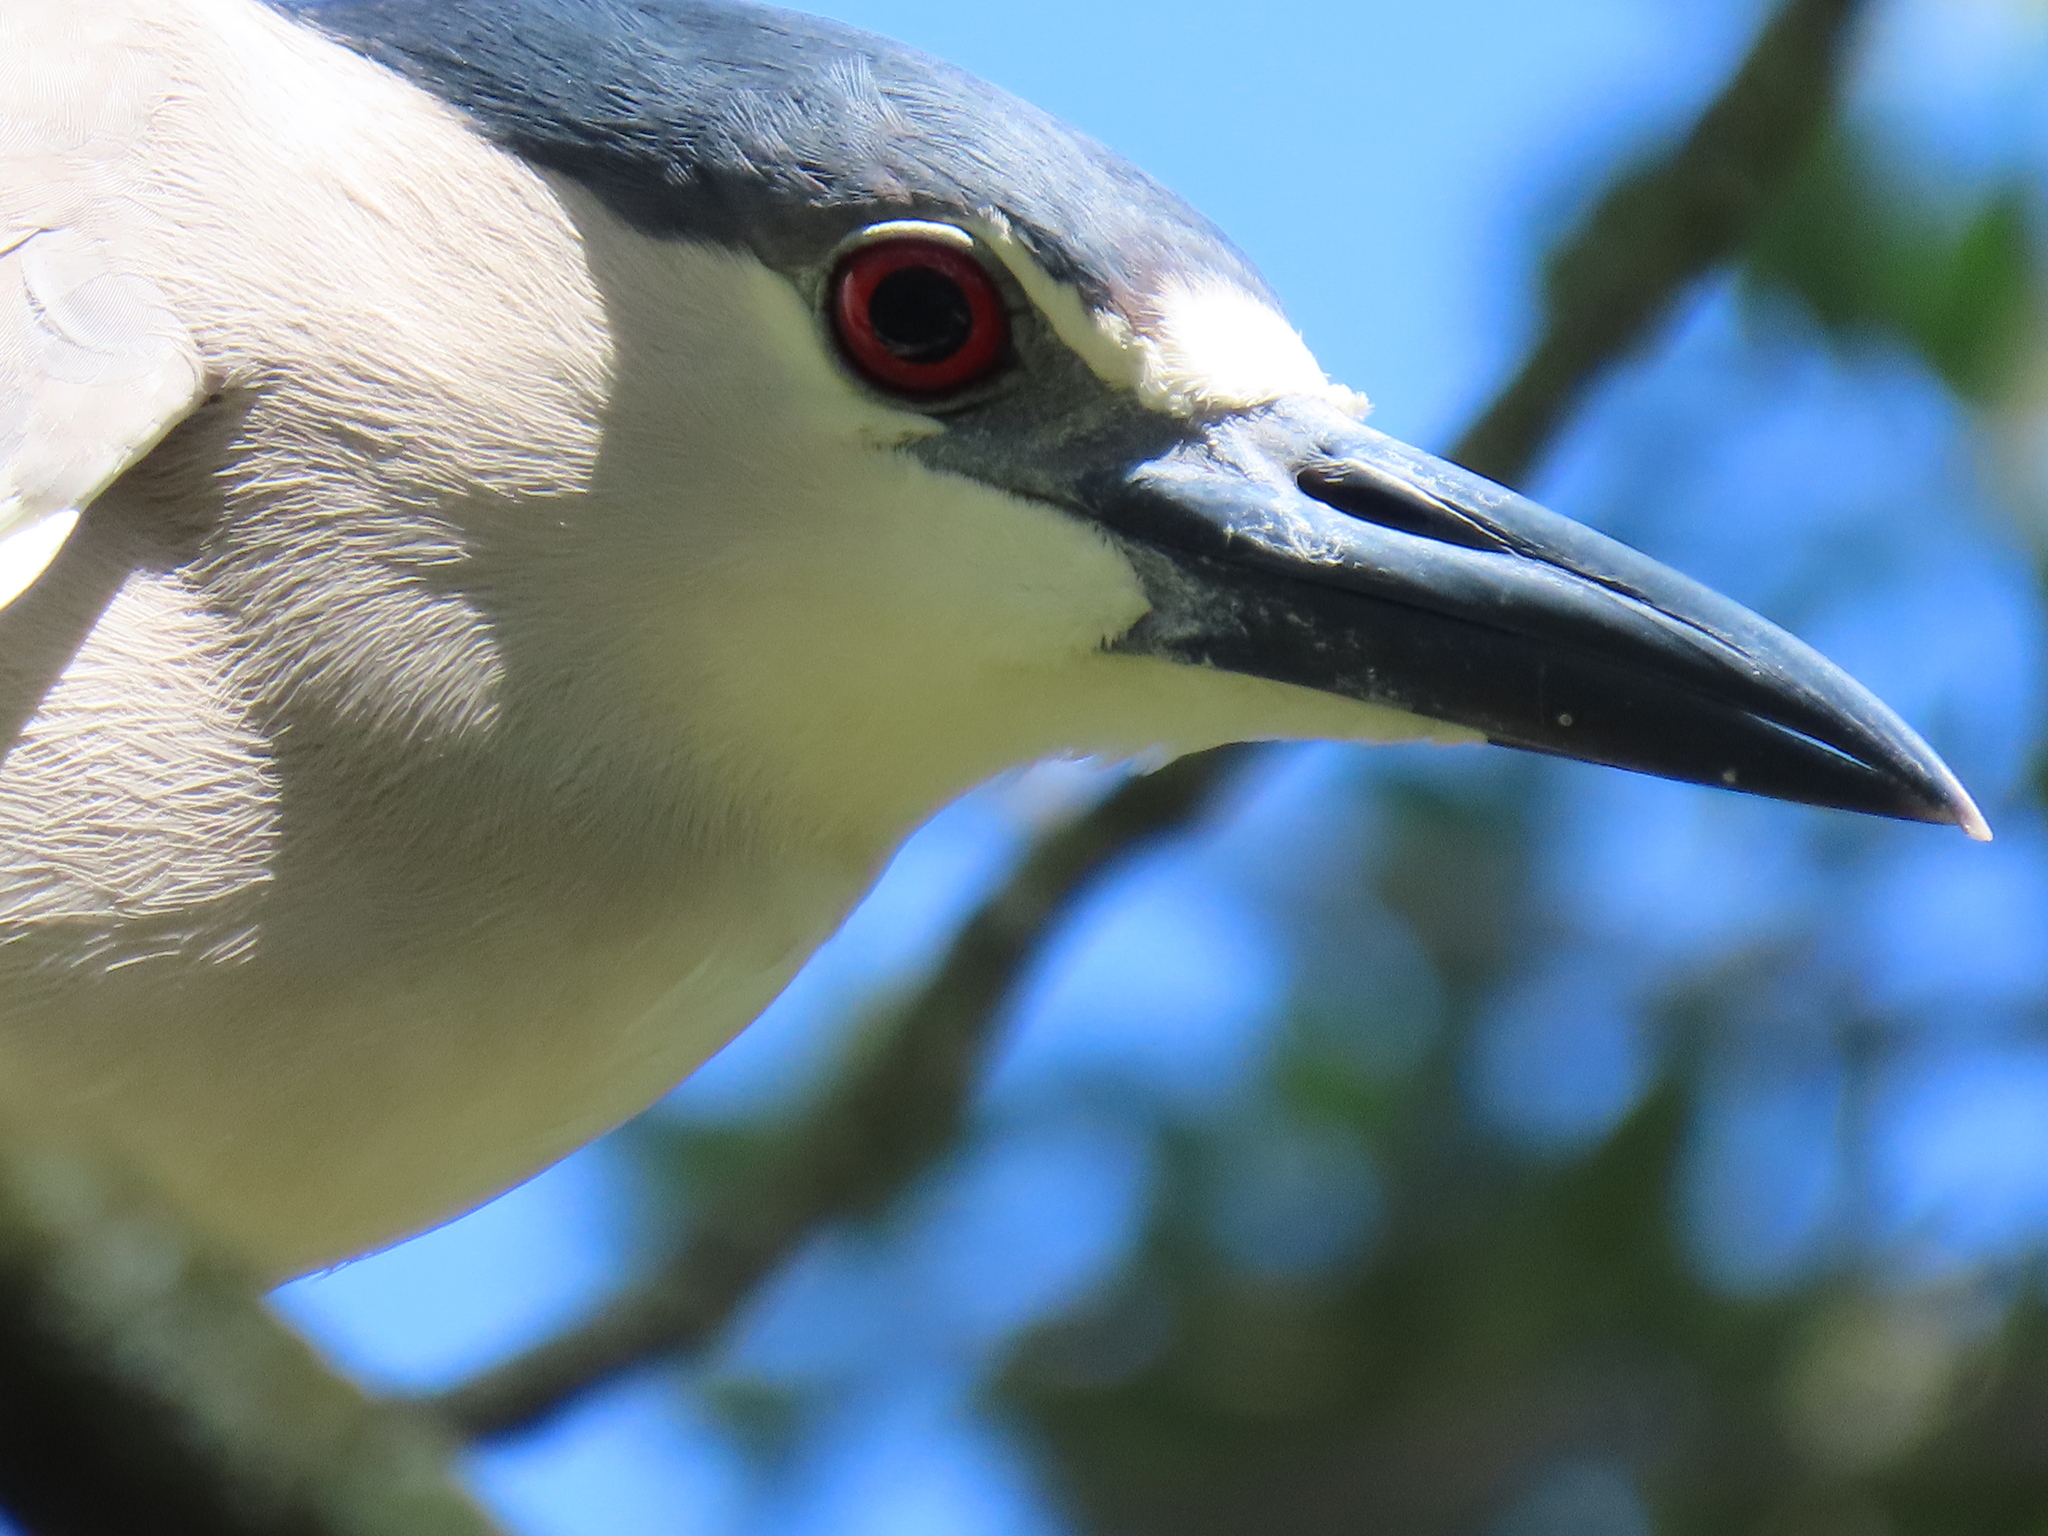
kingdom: Animalia
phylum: Chordata
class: Aves
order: Pelecaniformes
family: Ardeidae
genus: Nycticorax
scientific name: Nycticorax nycticorax
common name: Black-crowned night heron
